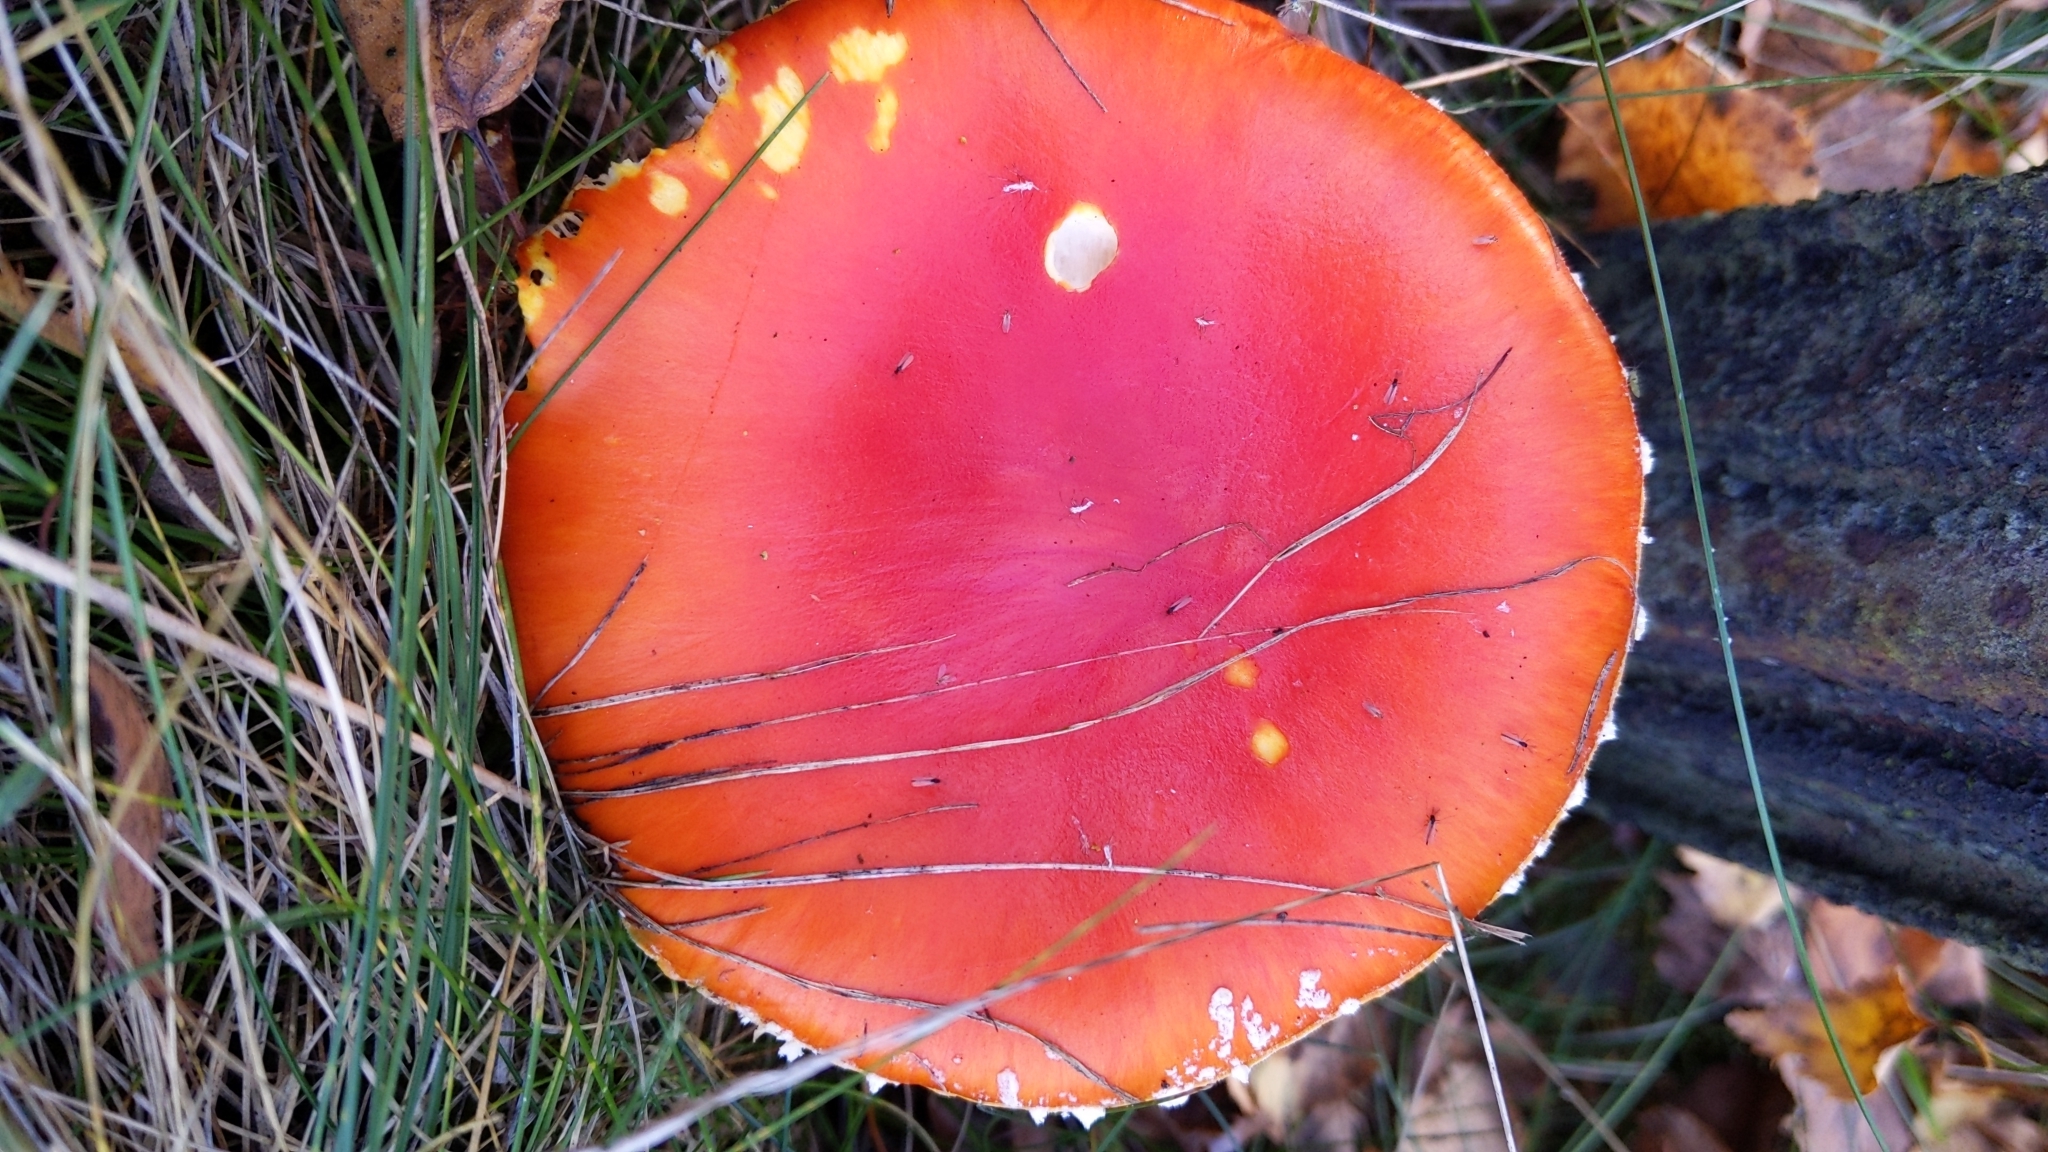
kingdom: Fungi
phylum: Basidiomycota
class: Agaricomycetes
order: Agaricales
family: Amanitaceae
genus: Amanita
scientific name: Amanita muscaria
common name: Fly agaric
